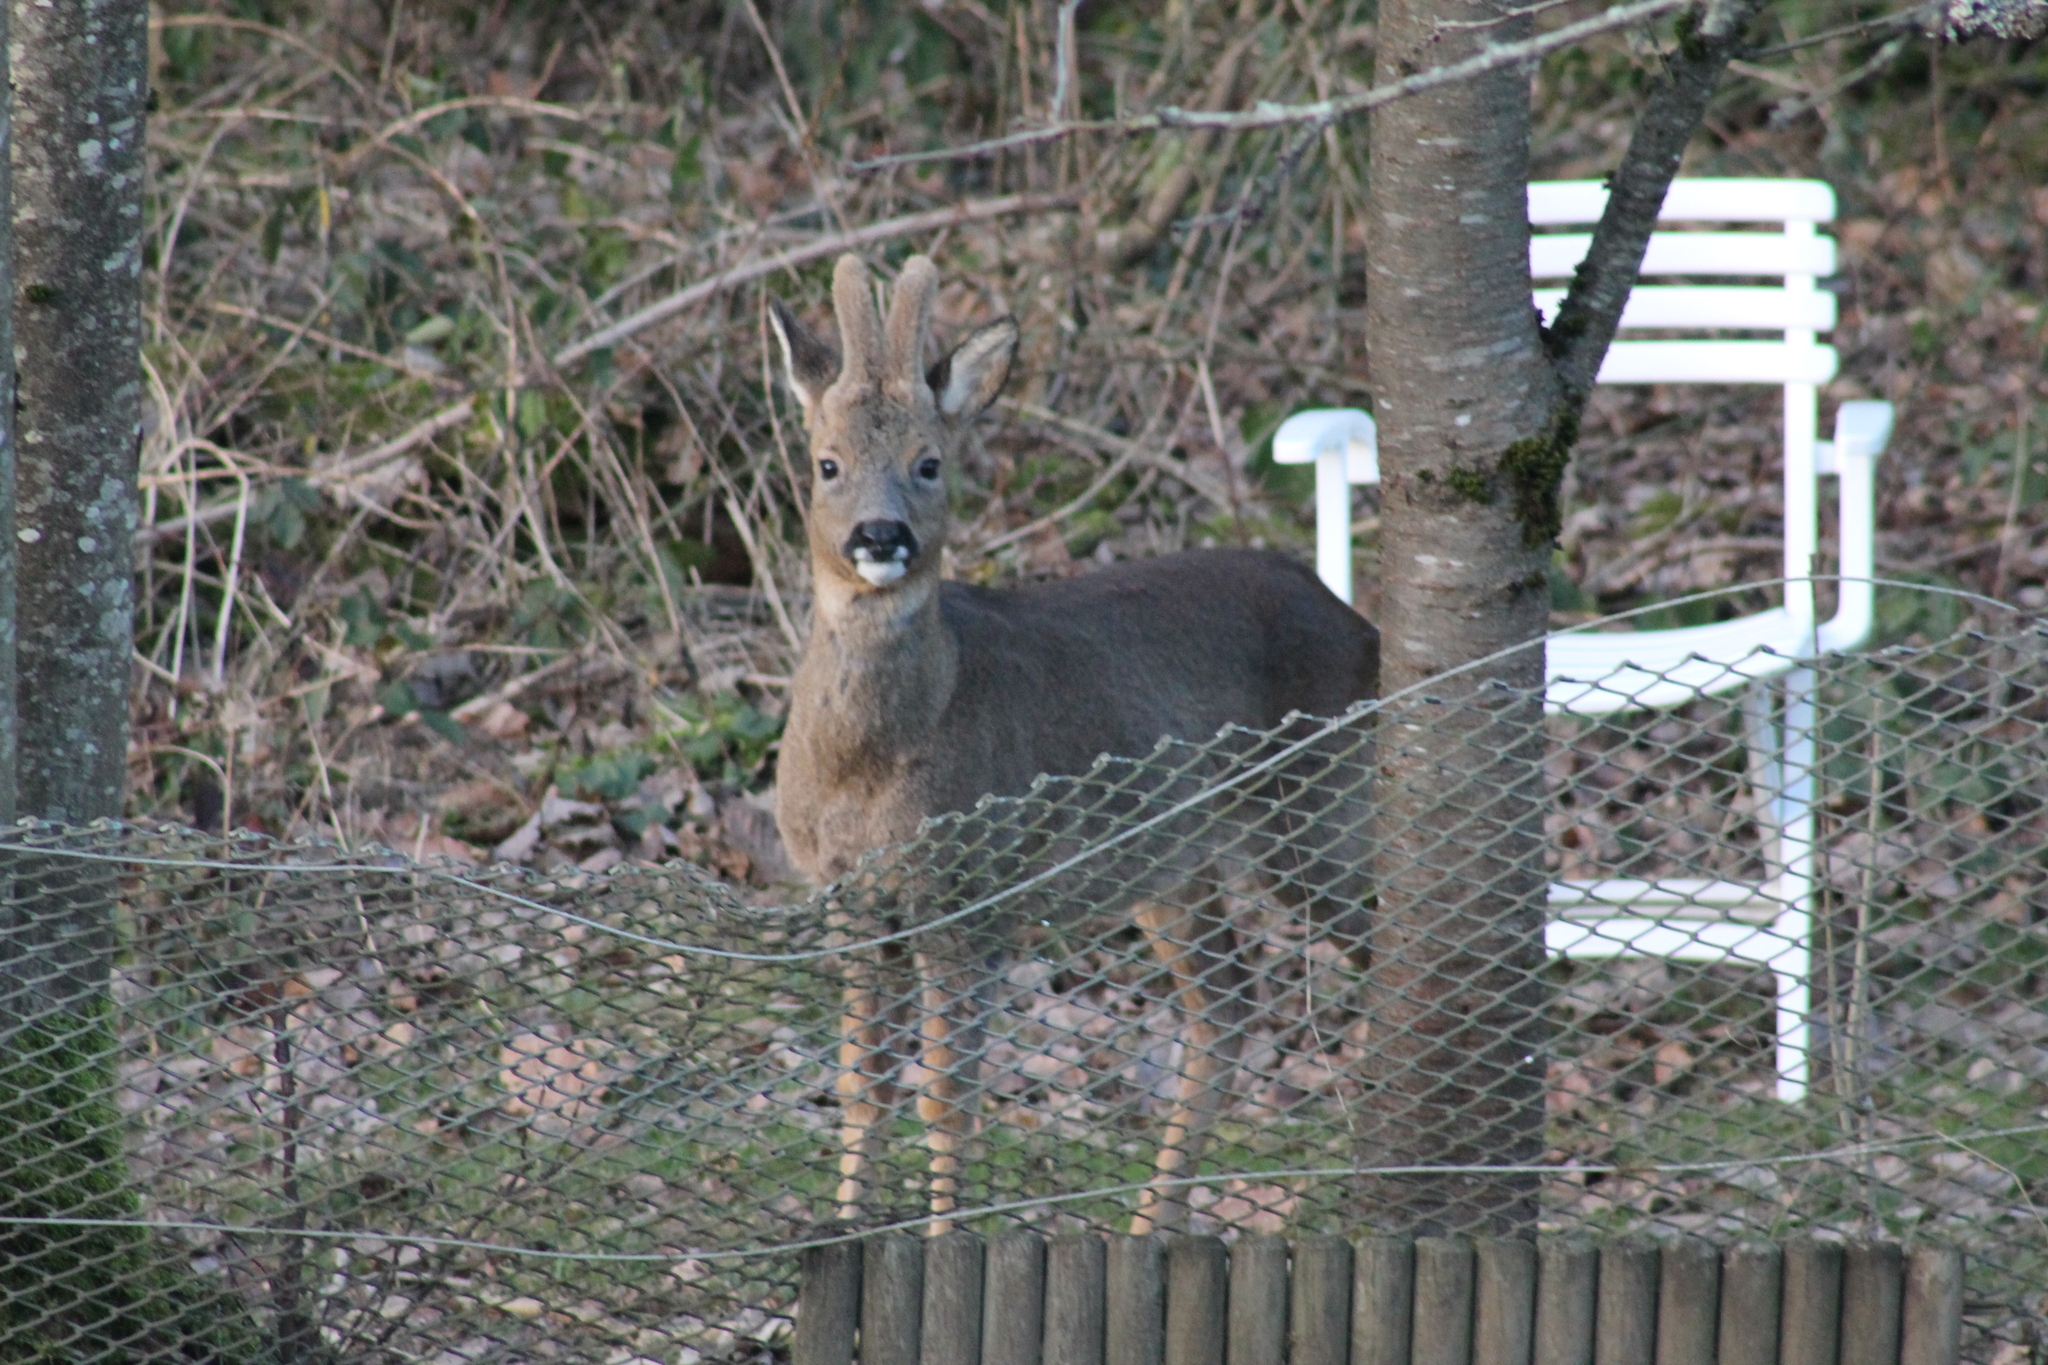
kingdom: Animalia
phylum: Chordata
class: Mammalia
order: Artiodactyla
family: Cervidae
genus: Capreolus
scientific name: Capreolus capreolus
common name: Western roe deer
